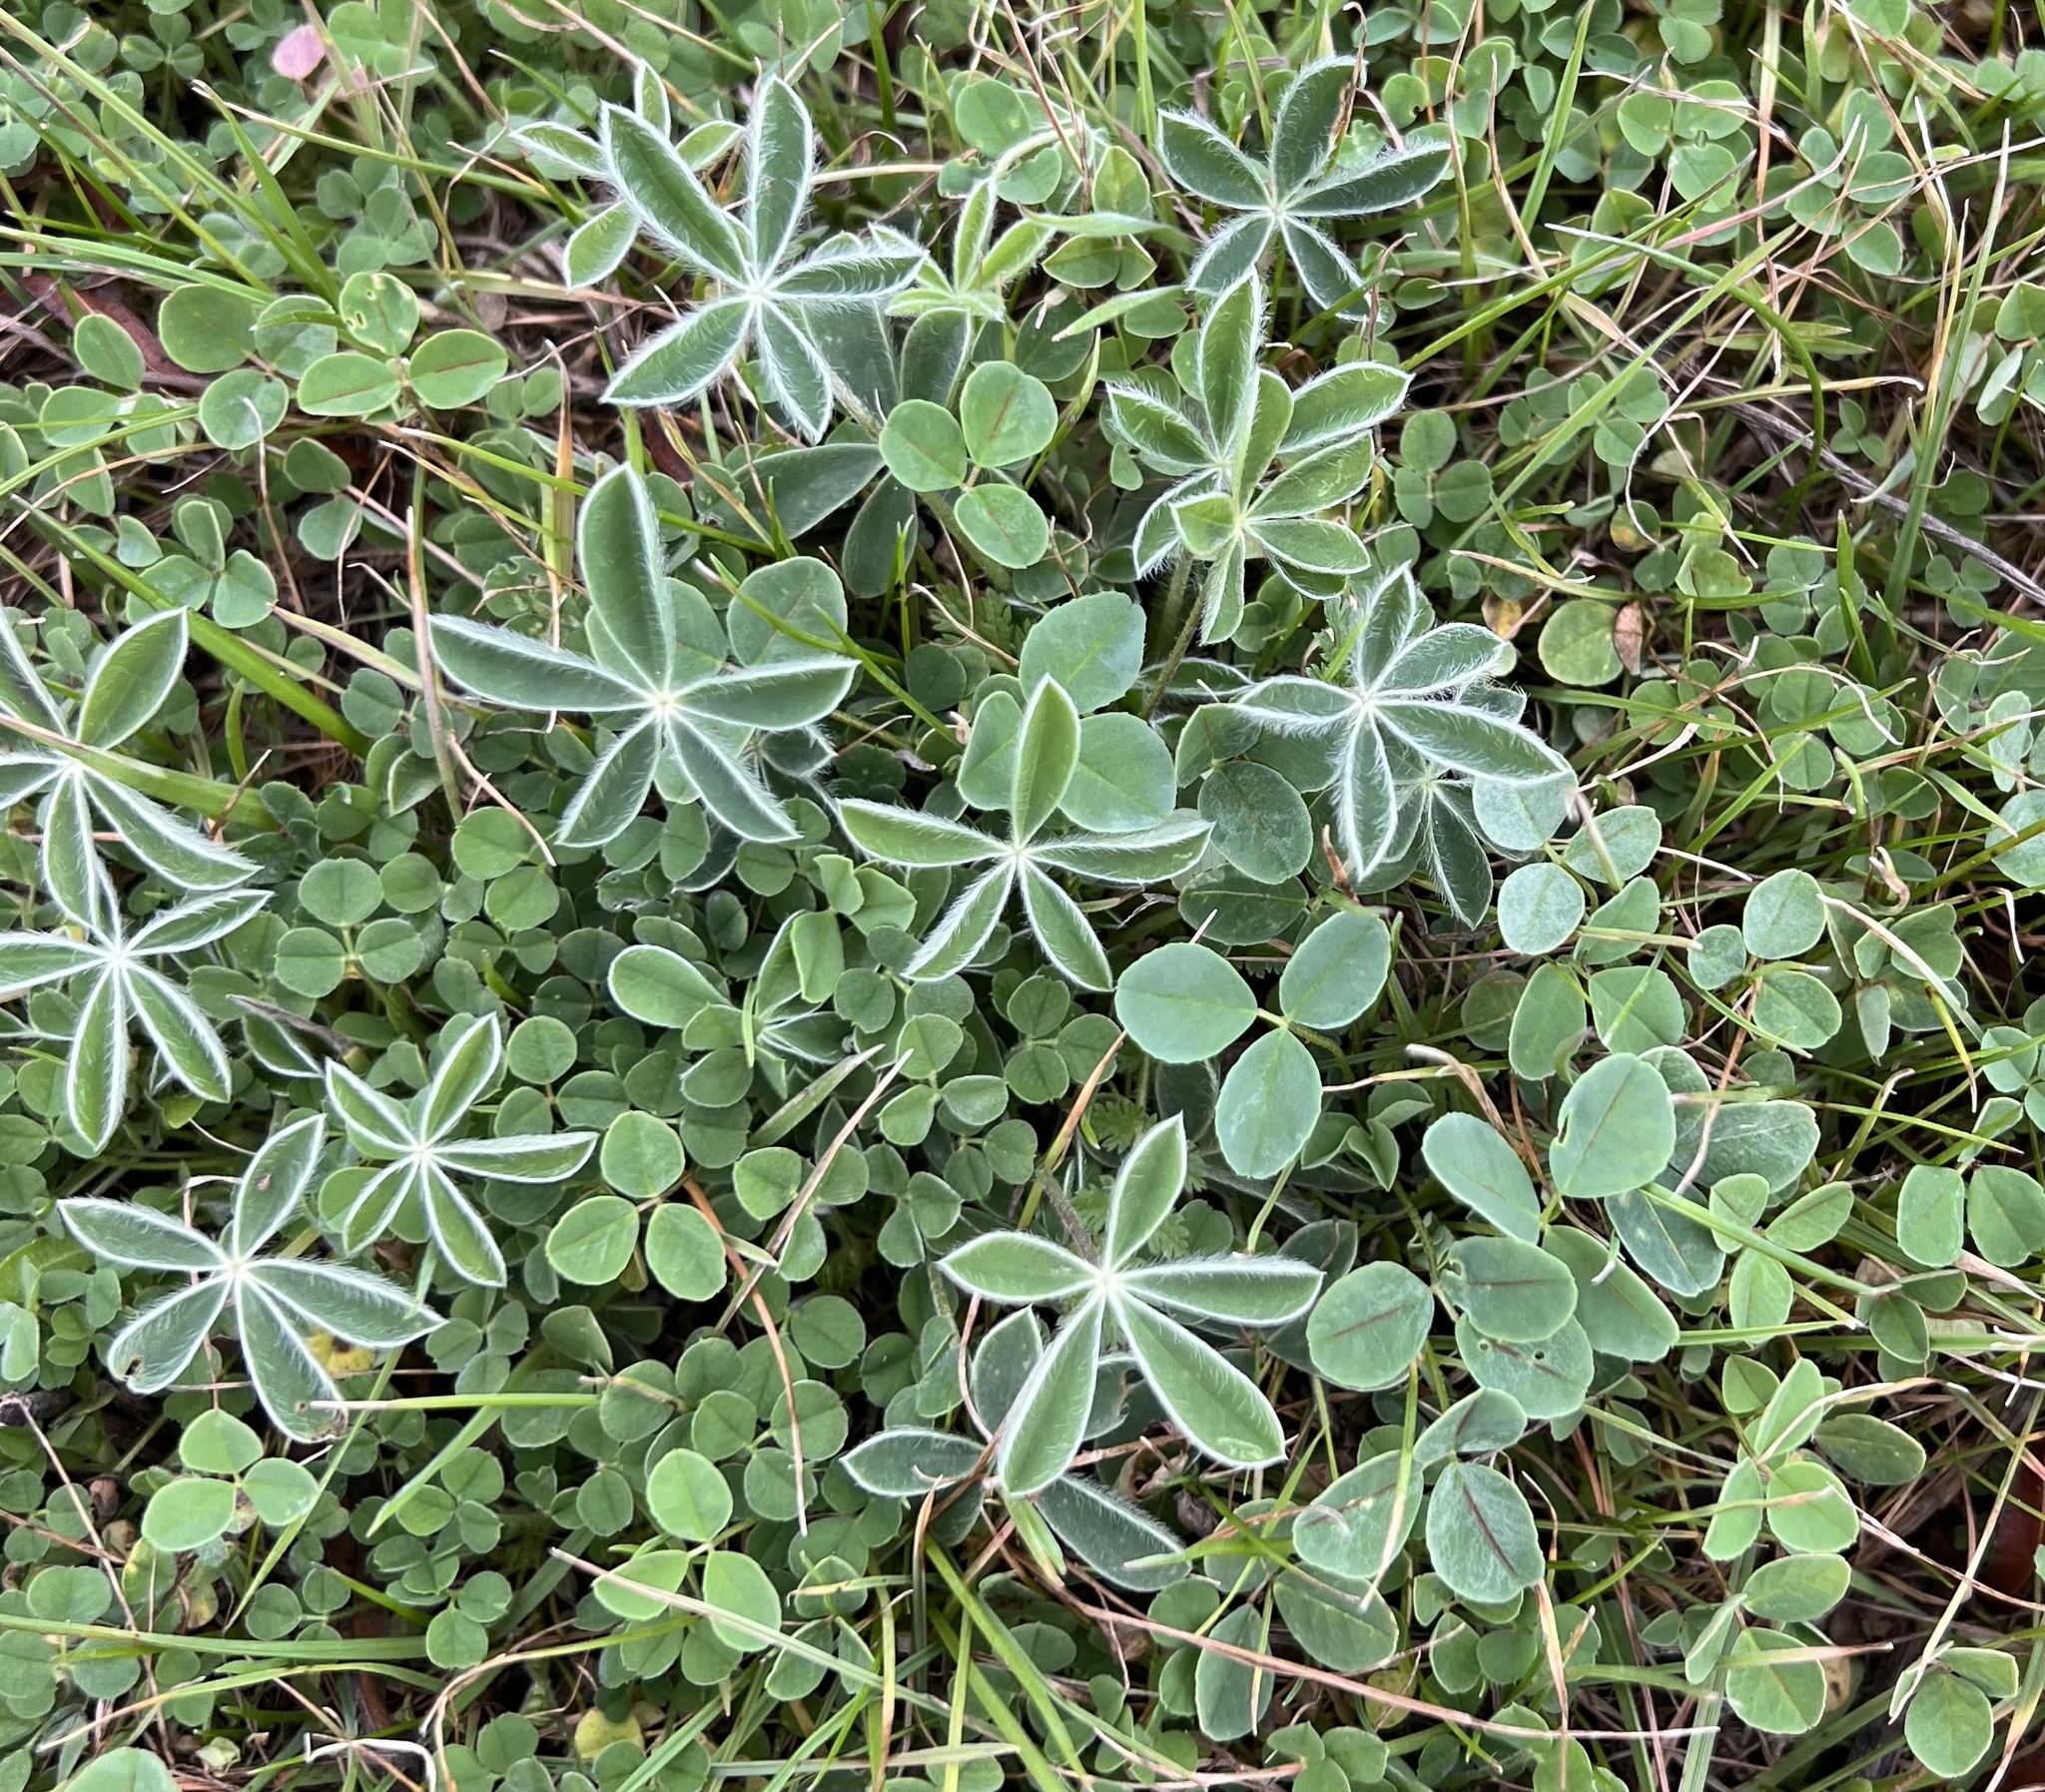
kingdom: Plantae
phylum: Tracheophyta
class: Magnoliopsida
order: Fabales
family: Fabaceae
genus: Lupinus
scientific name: Lupinus texensis
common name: Texas bluebonnet
